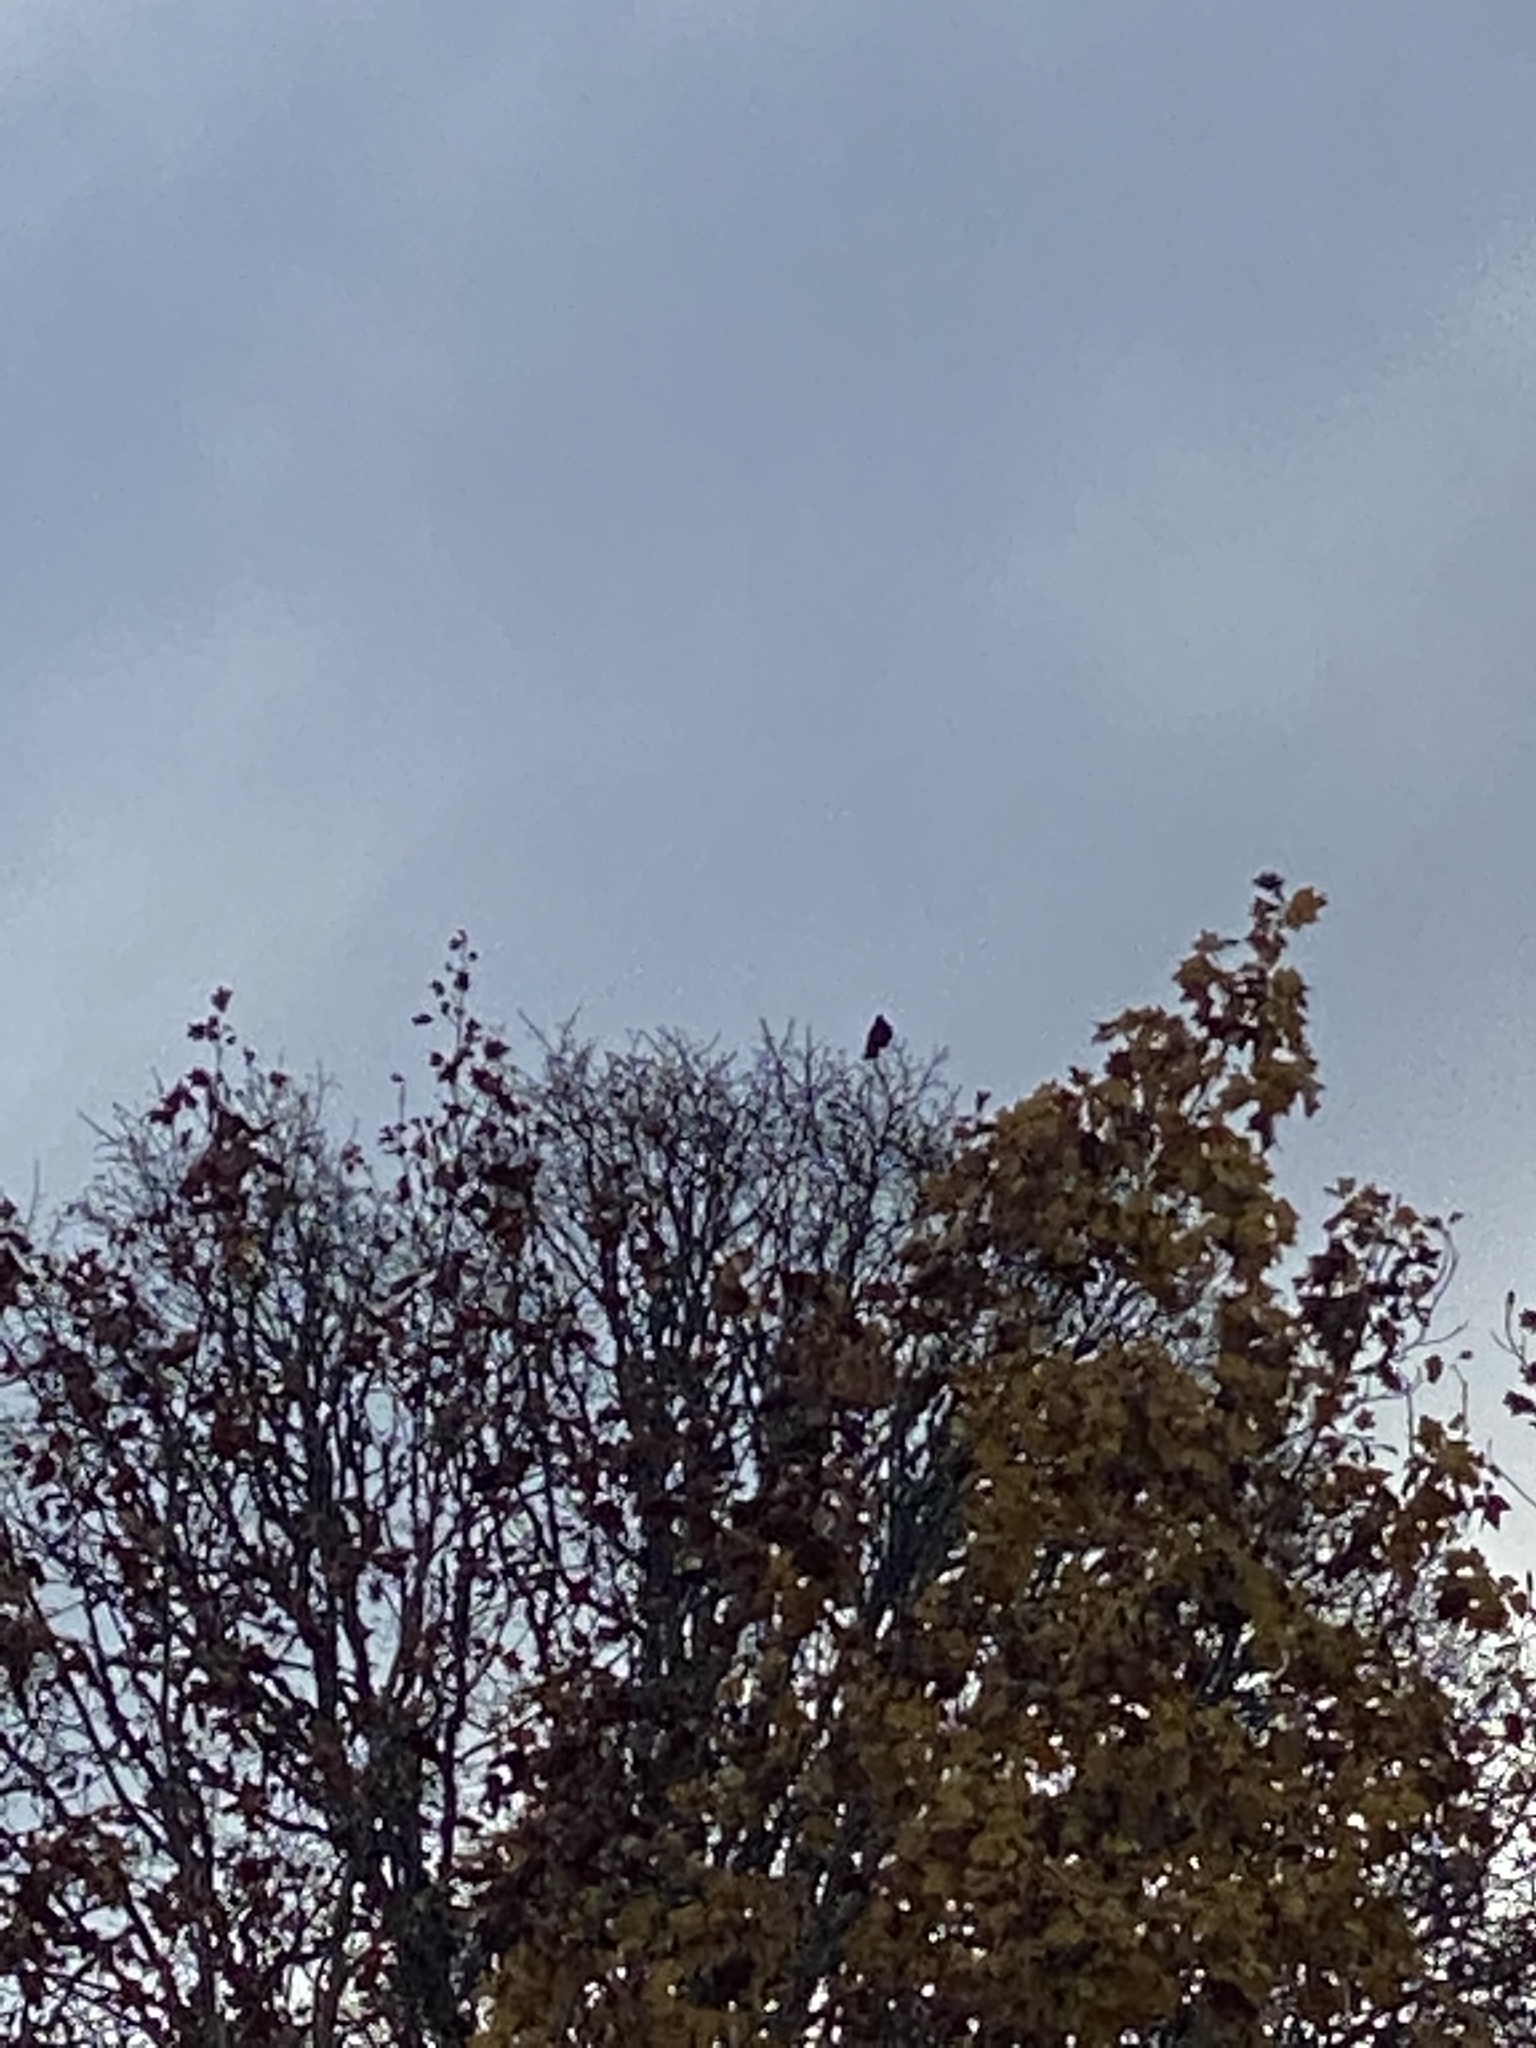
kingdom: Animalia
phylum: Chordata
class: Aves
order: Passeriformes
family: Corvidae
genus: Corvus
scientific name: Corvus brachyrhynchos
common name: American crow
